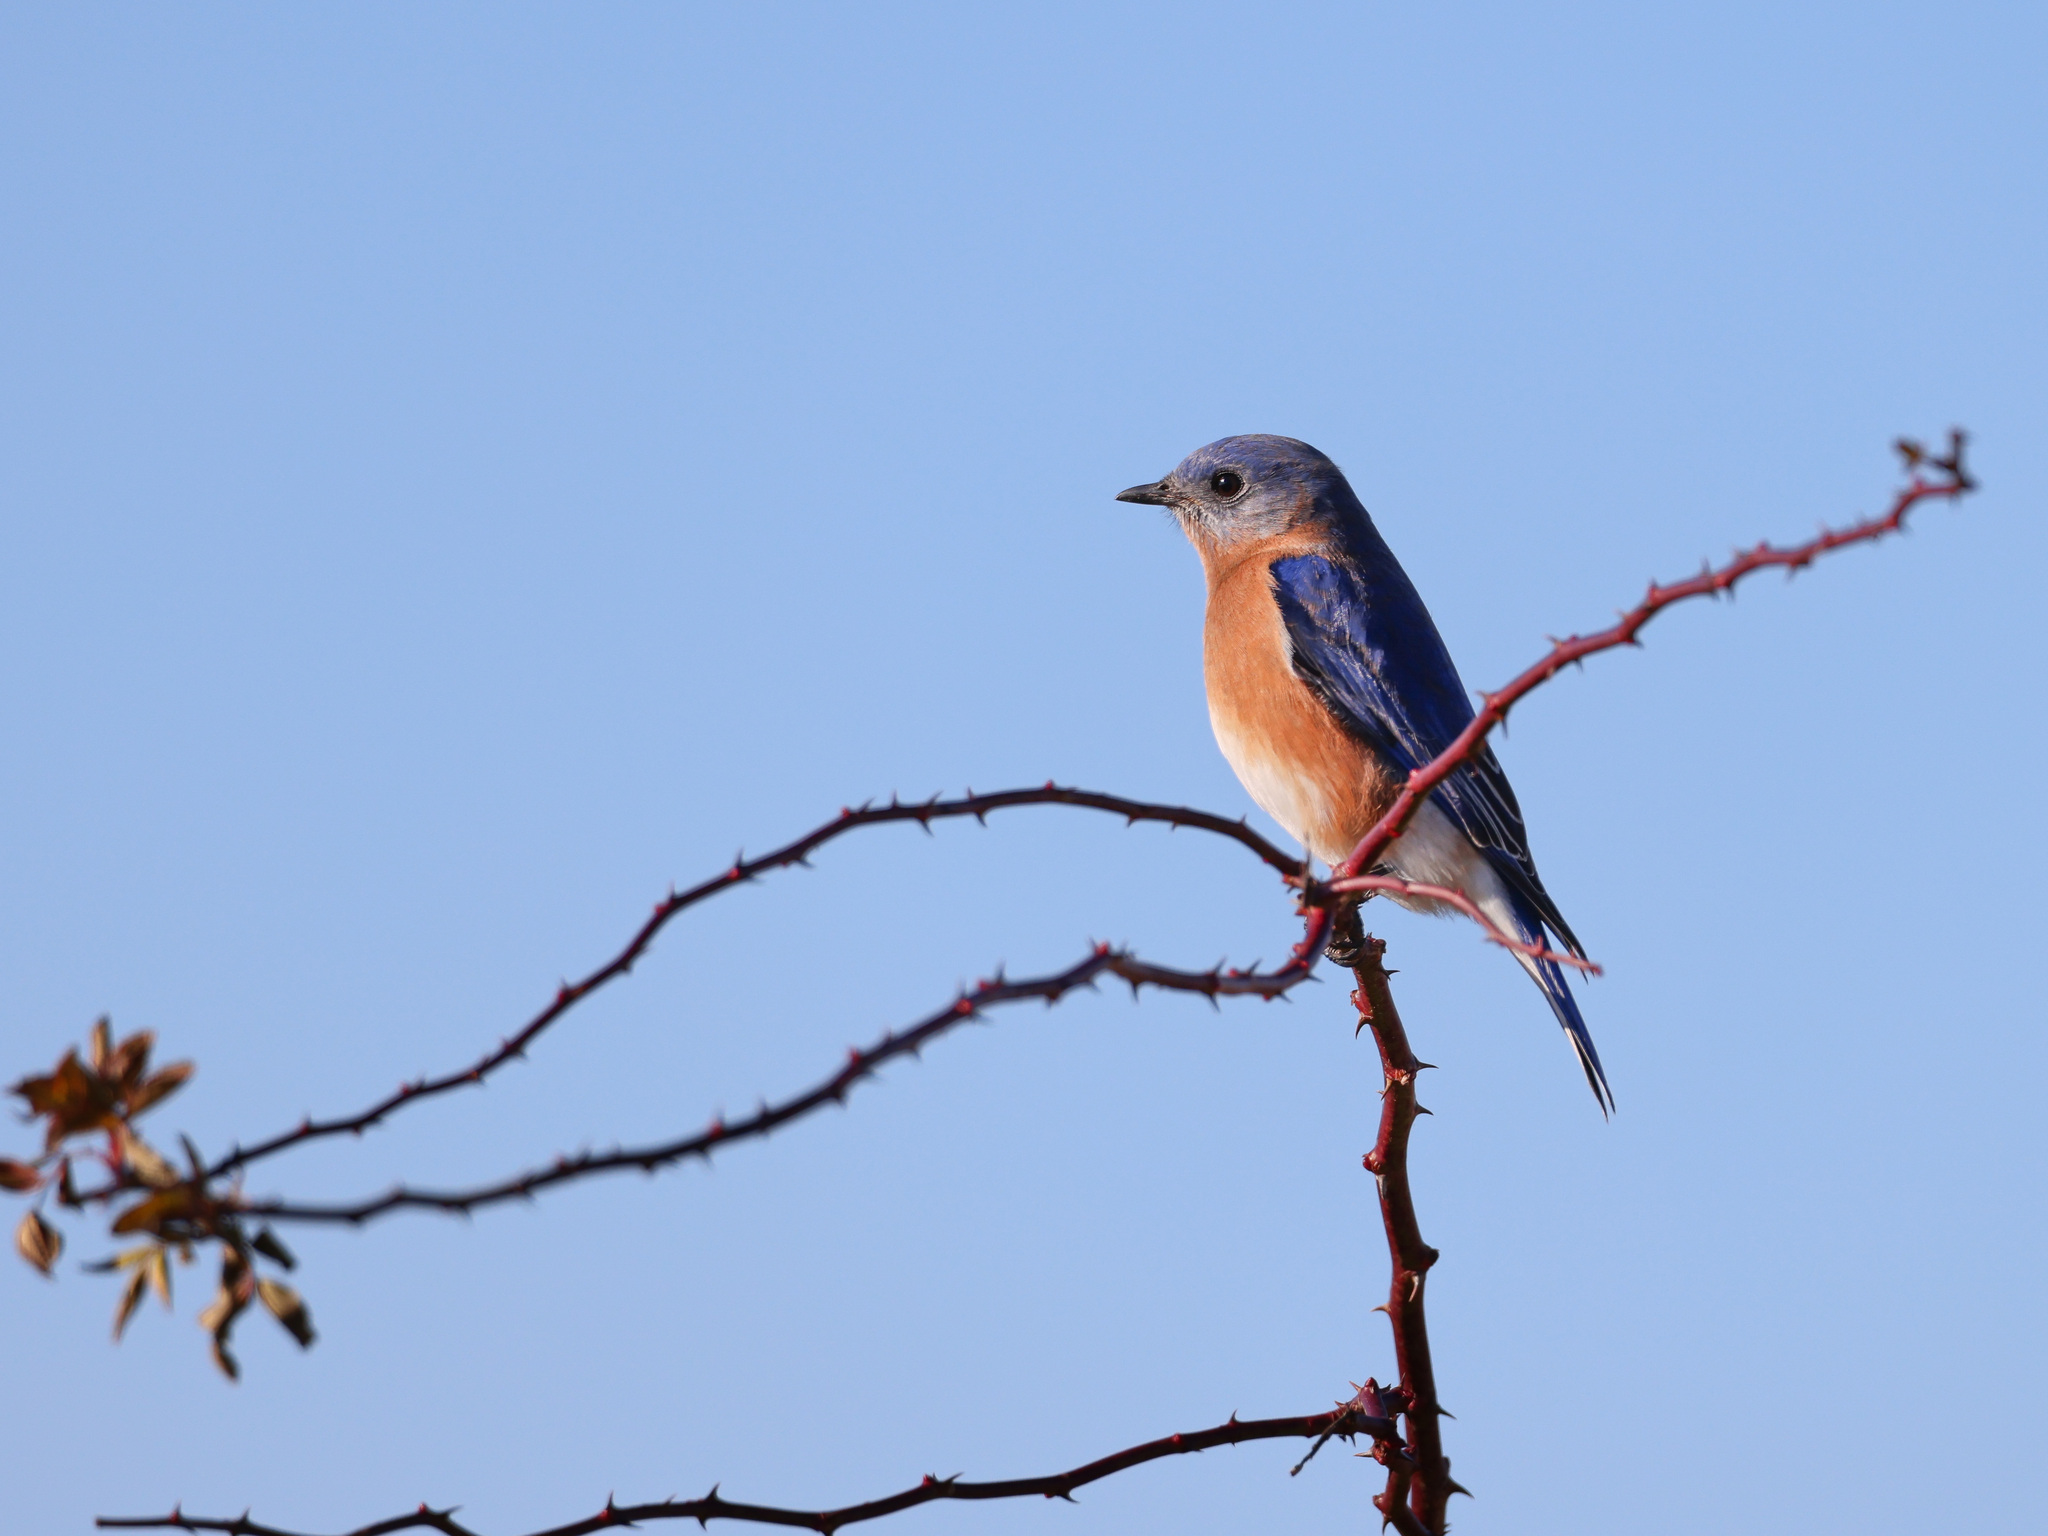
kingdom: Animalia
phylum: Chordata
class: Aves
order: Passeriformes
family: Turdidae
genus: Sialia
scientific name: Sialia sialis
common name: Eastern bluebird
